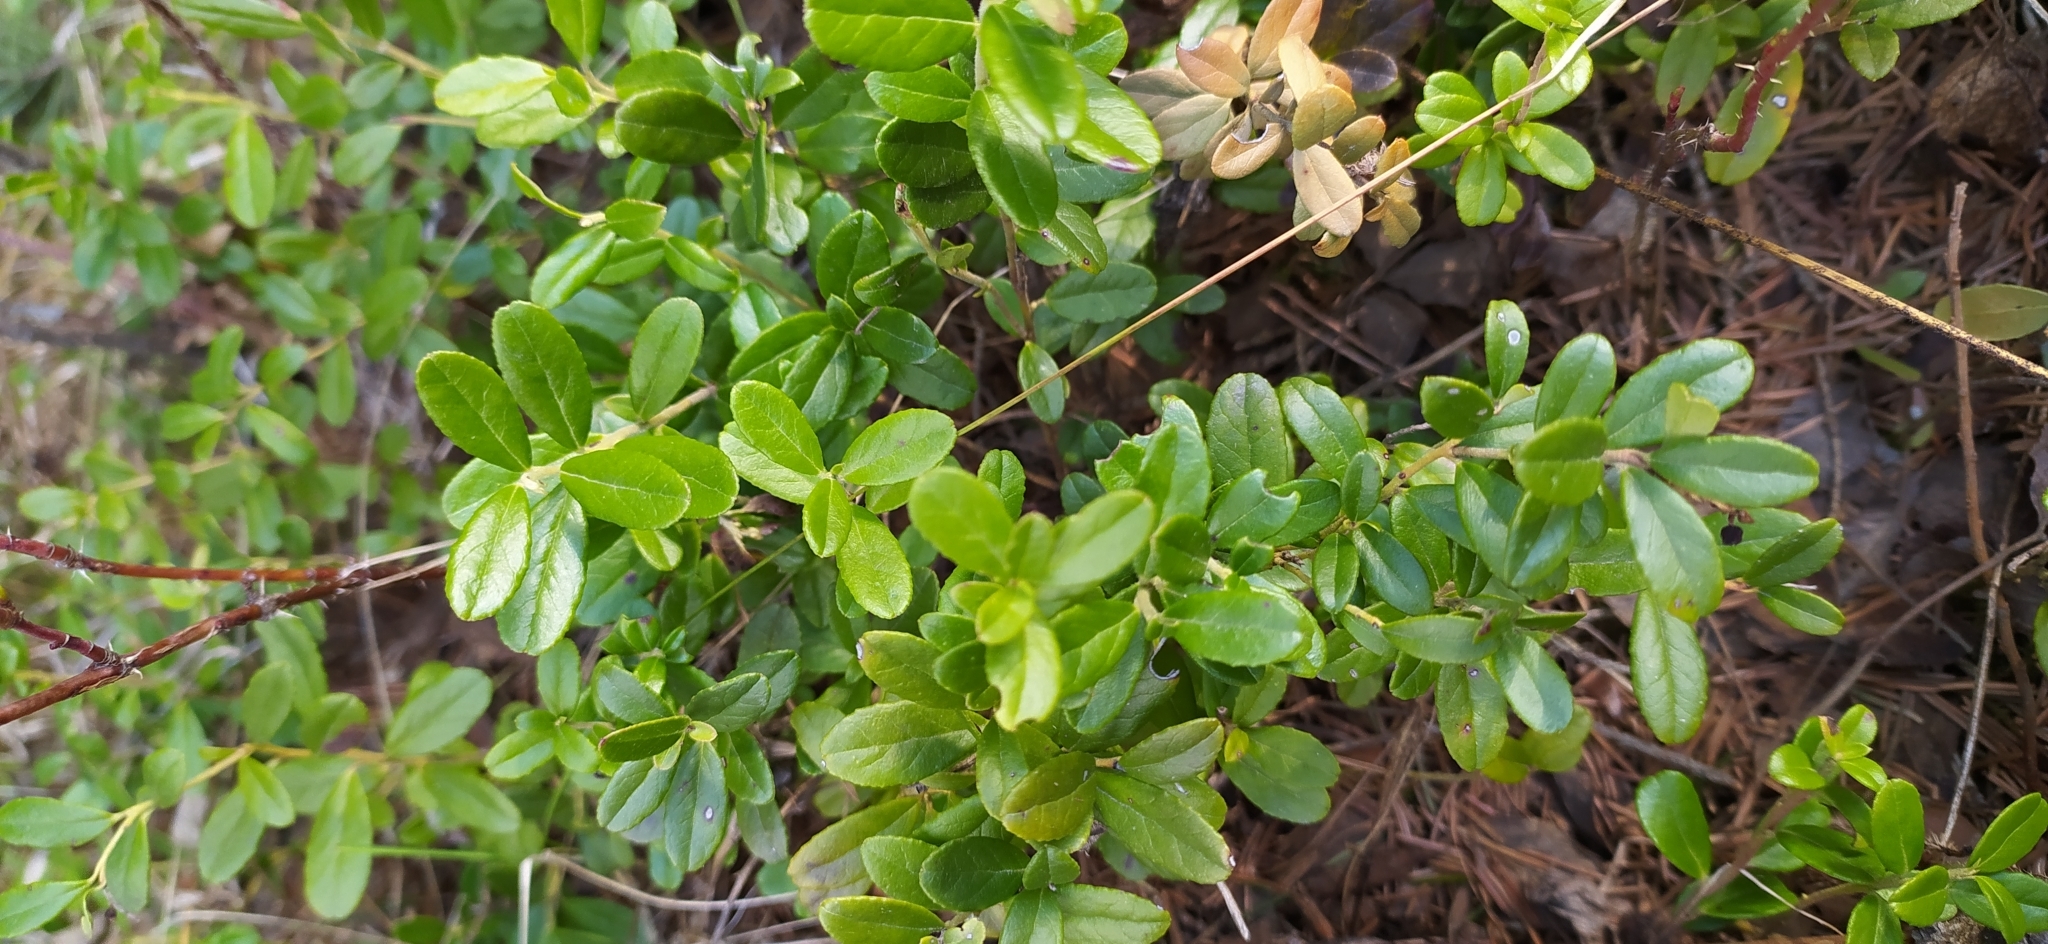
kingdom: Plantae
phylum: Tracheophyta
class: Magnoliopsida
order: Ericales
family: Ericaceae
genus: Vaccinium
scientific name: Vaccinium vitis-idaea
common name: Cowberry
